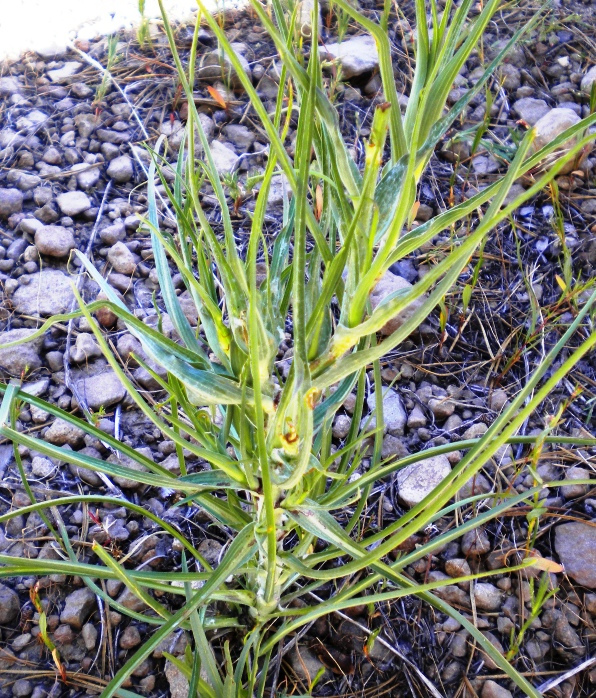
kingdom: Plantae
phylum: Tracheophyta
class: Magnoliopsida
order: Asterales
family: Asteraceae
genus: Tragopogon
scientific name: Tragopogon dubius
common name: Yellow salsify
